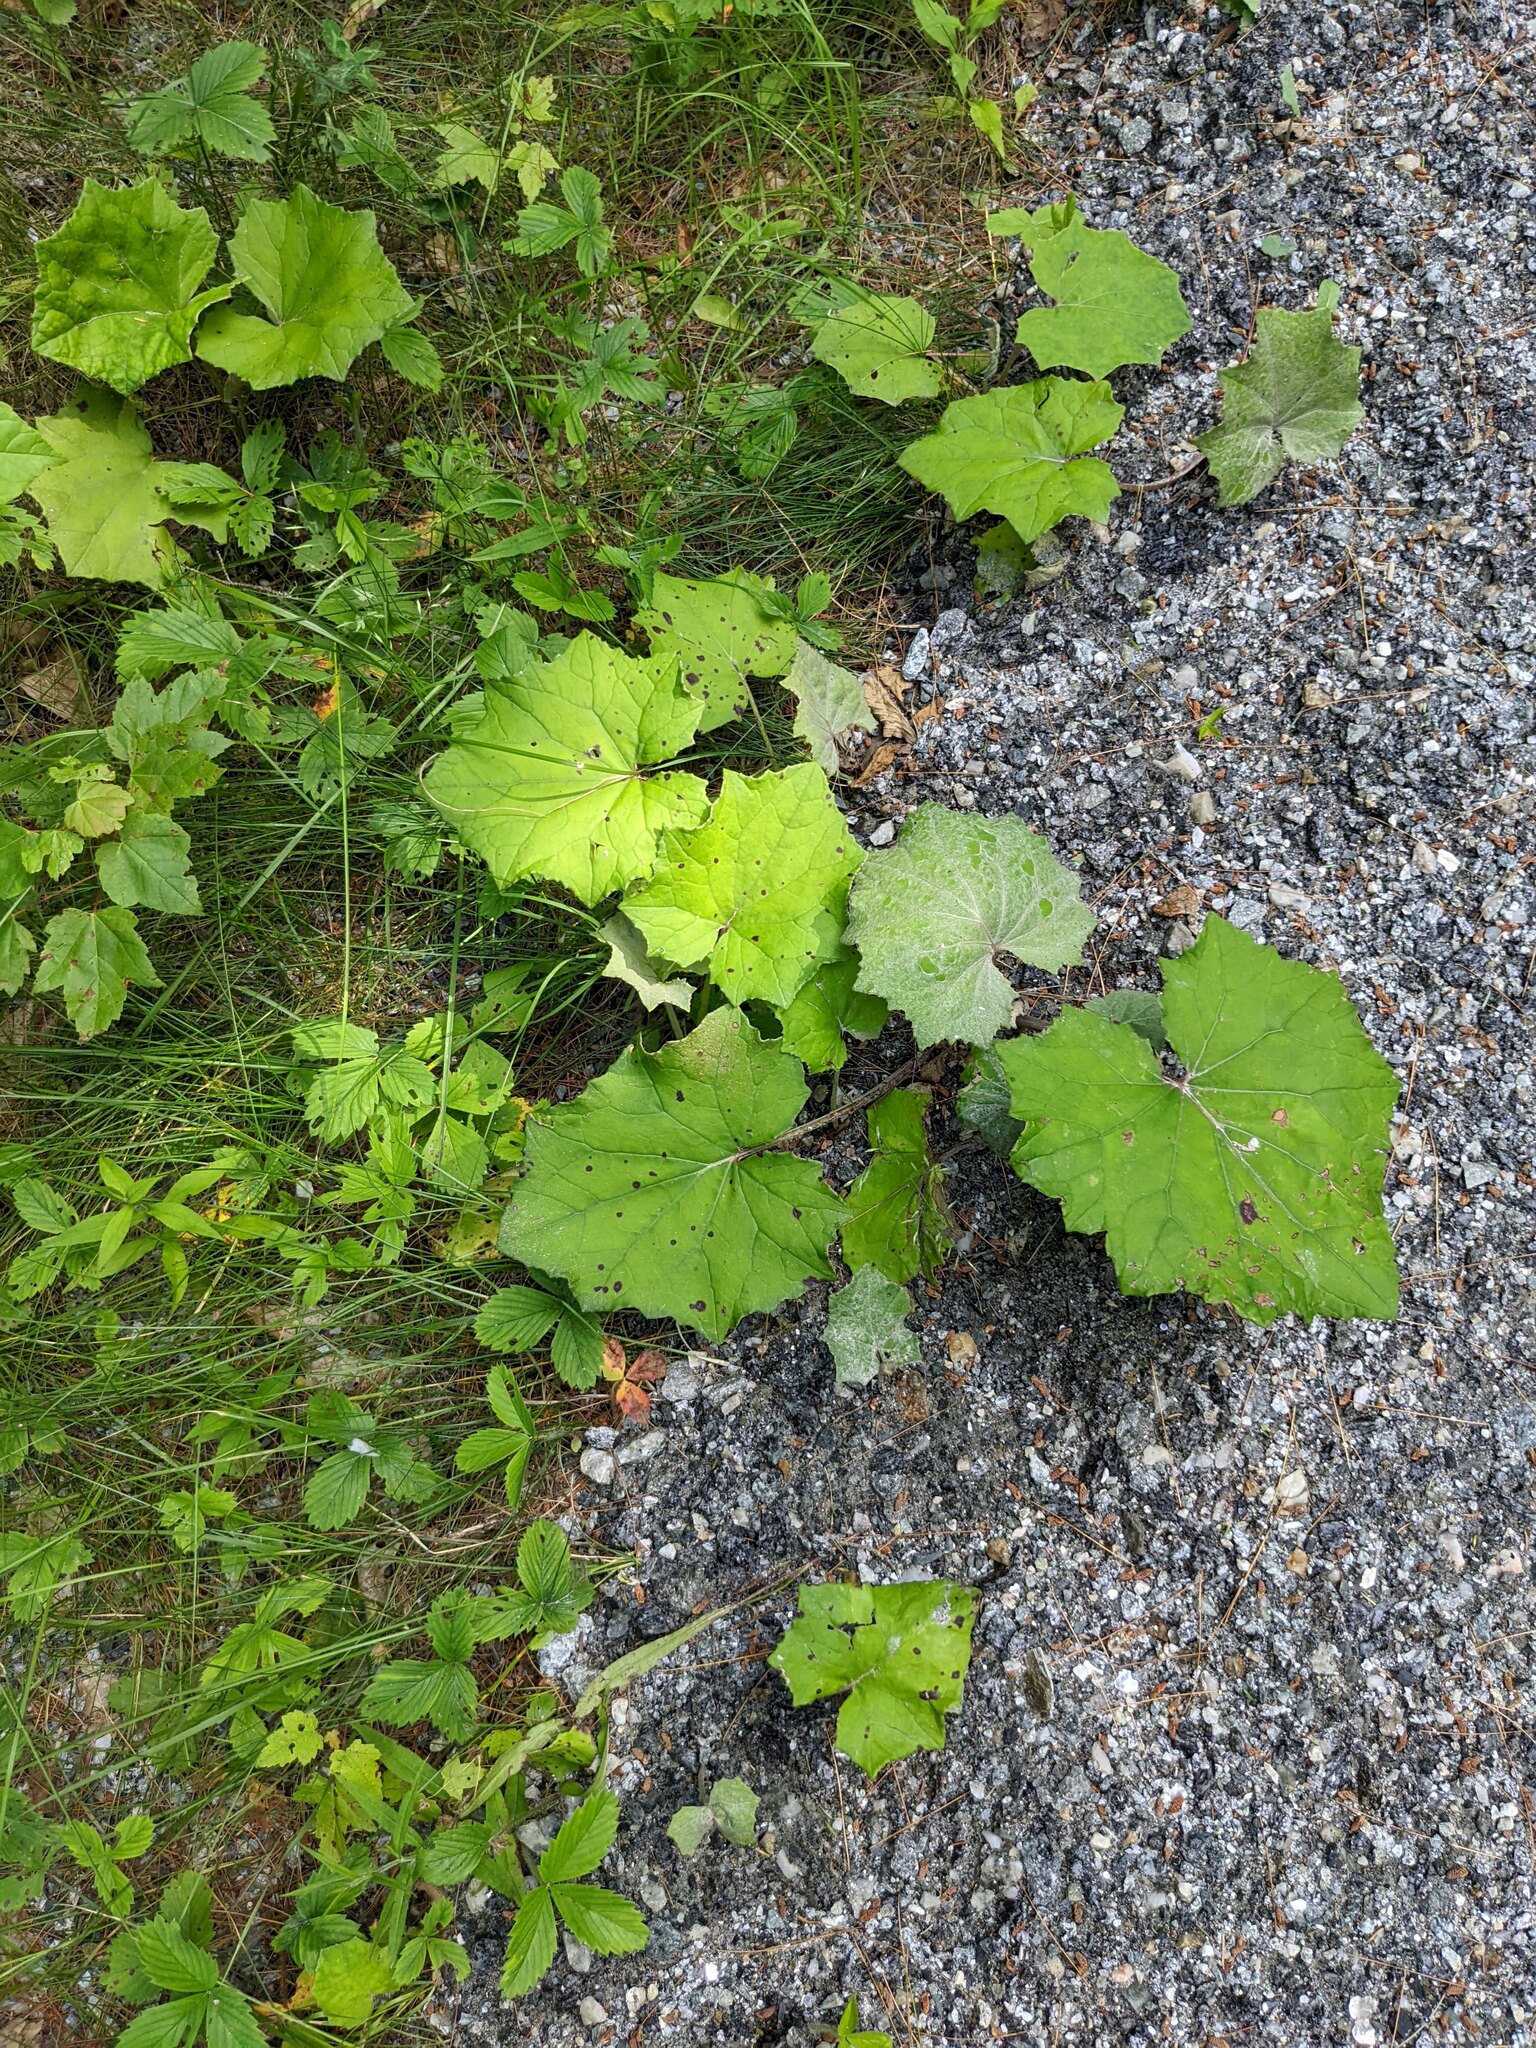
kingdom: Plantae
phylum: Tracheophyta
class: Magnoliopsida
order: Asterales
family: Asteraceae
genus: Tussilago
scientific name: Tussilago farfara
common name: Coltsfoot
